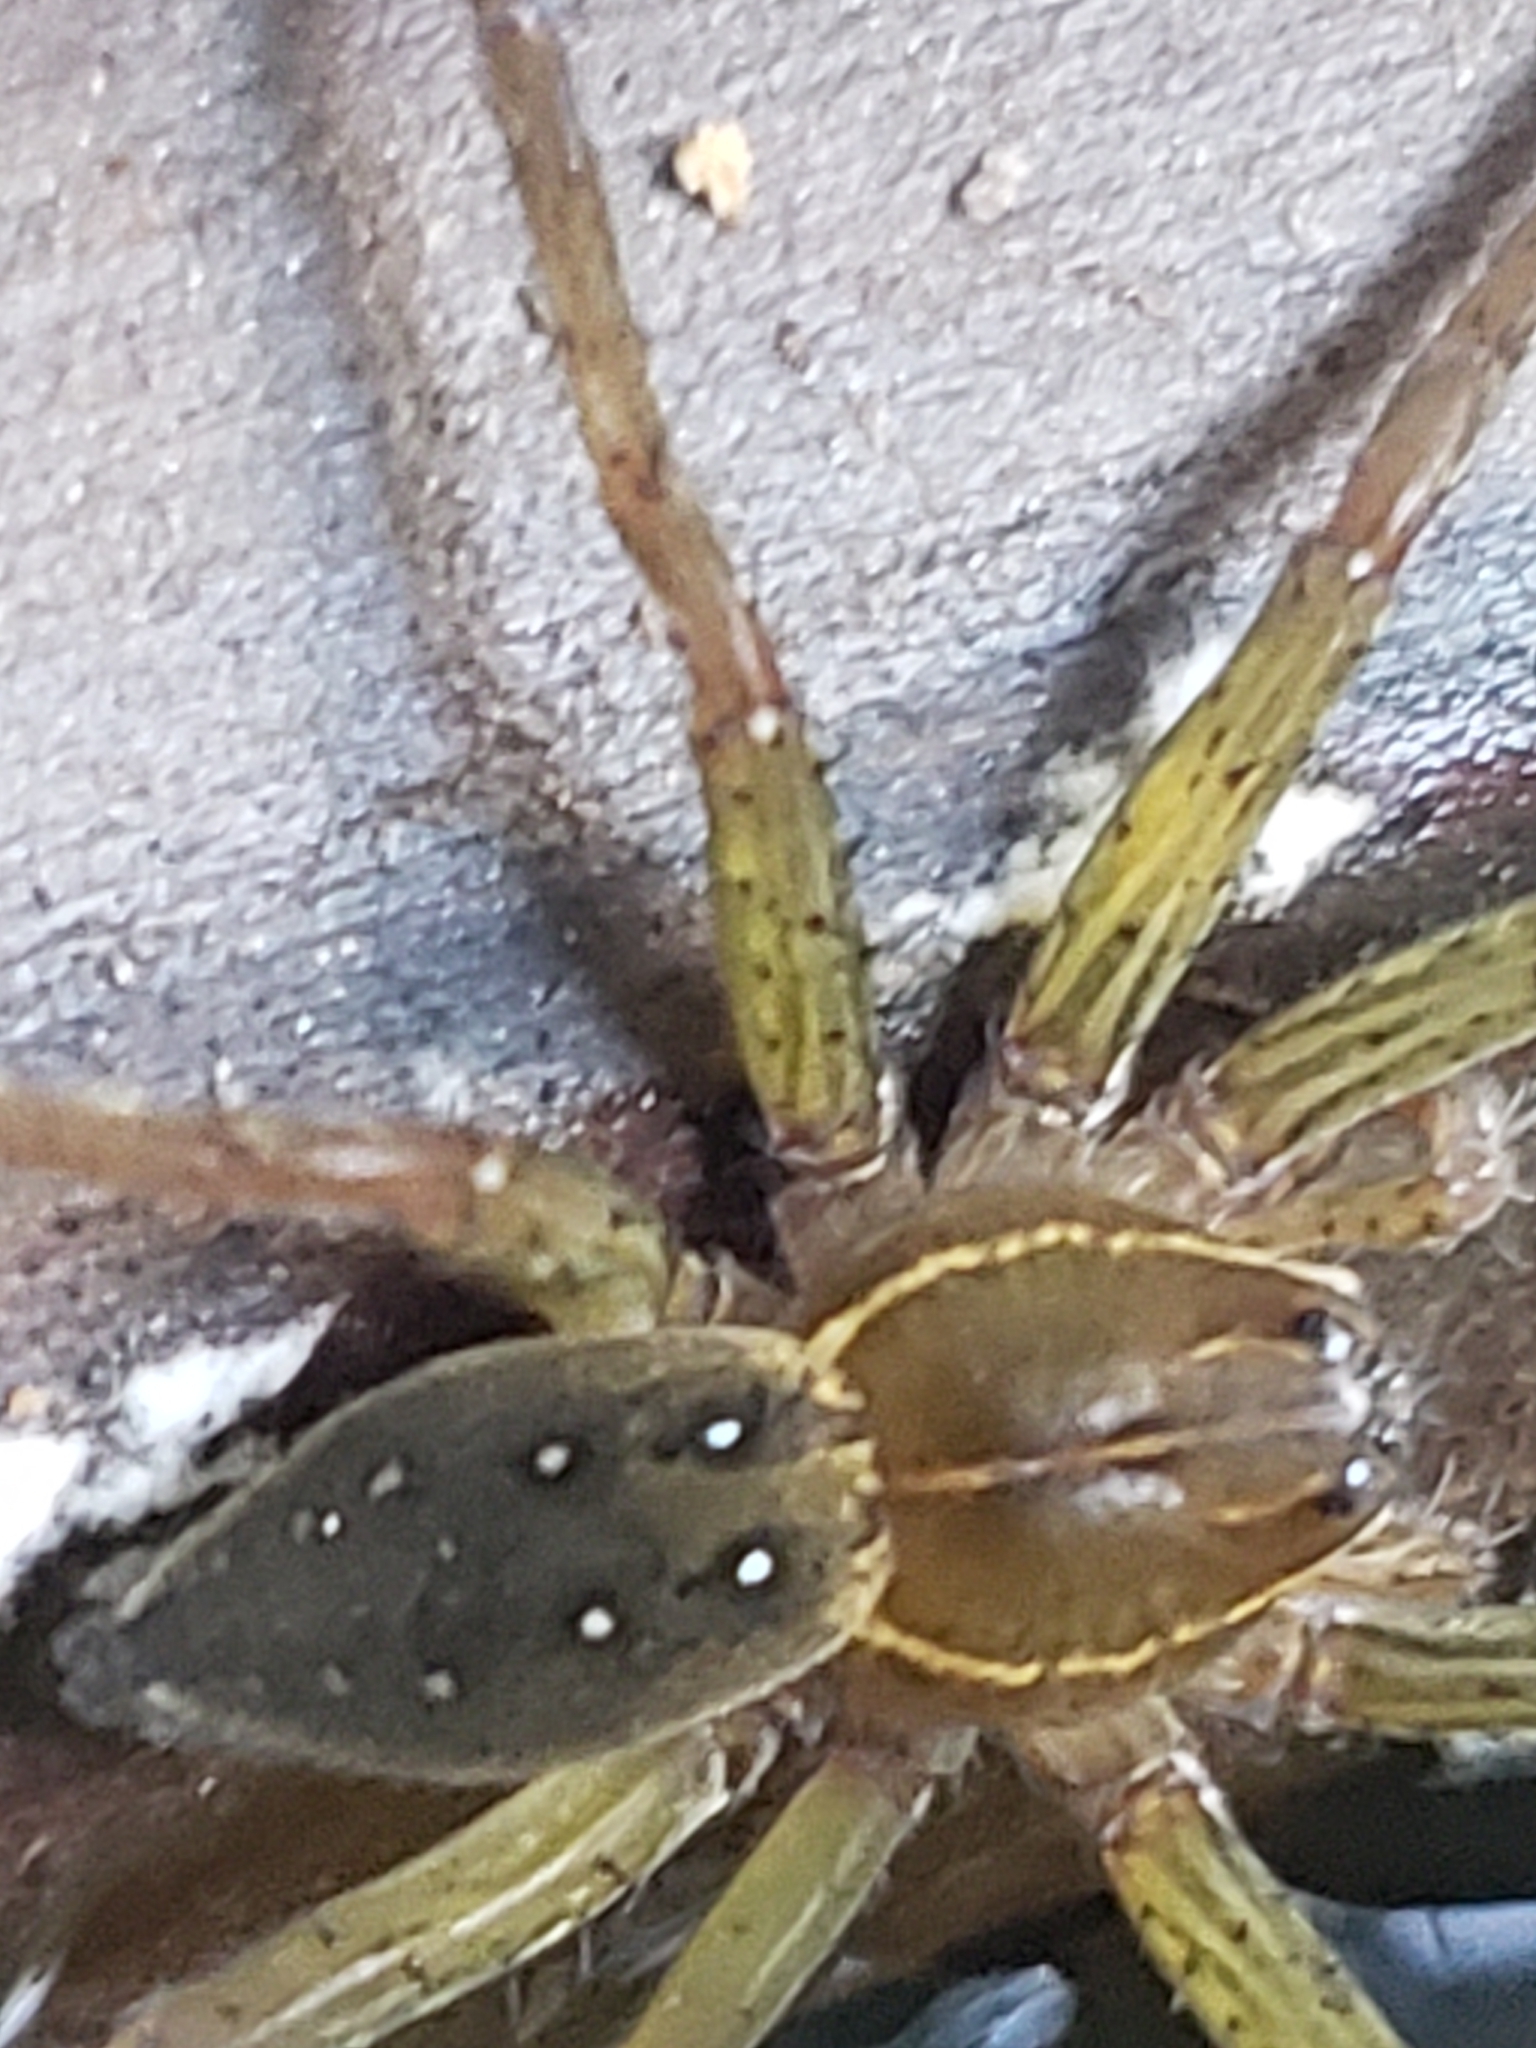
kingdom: Animalia
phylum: Arthropoda
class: Arachnida
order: Araneae
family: Pisauridae
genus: Dolomedes
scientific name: Dolomedes triton
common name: Six-spotted fishing spider
